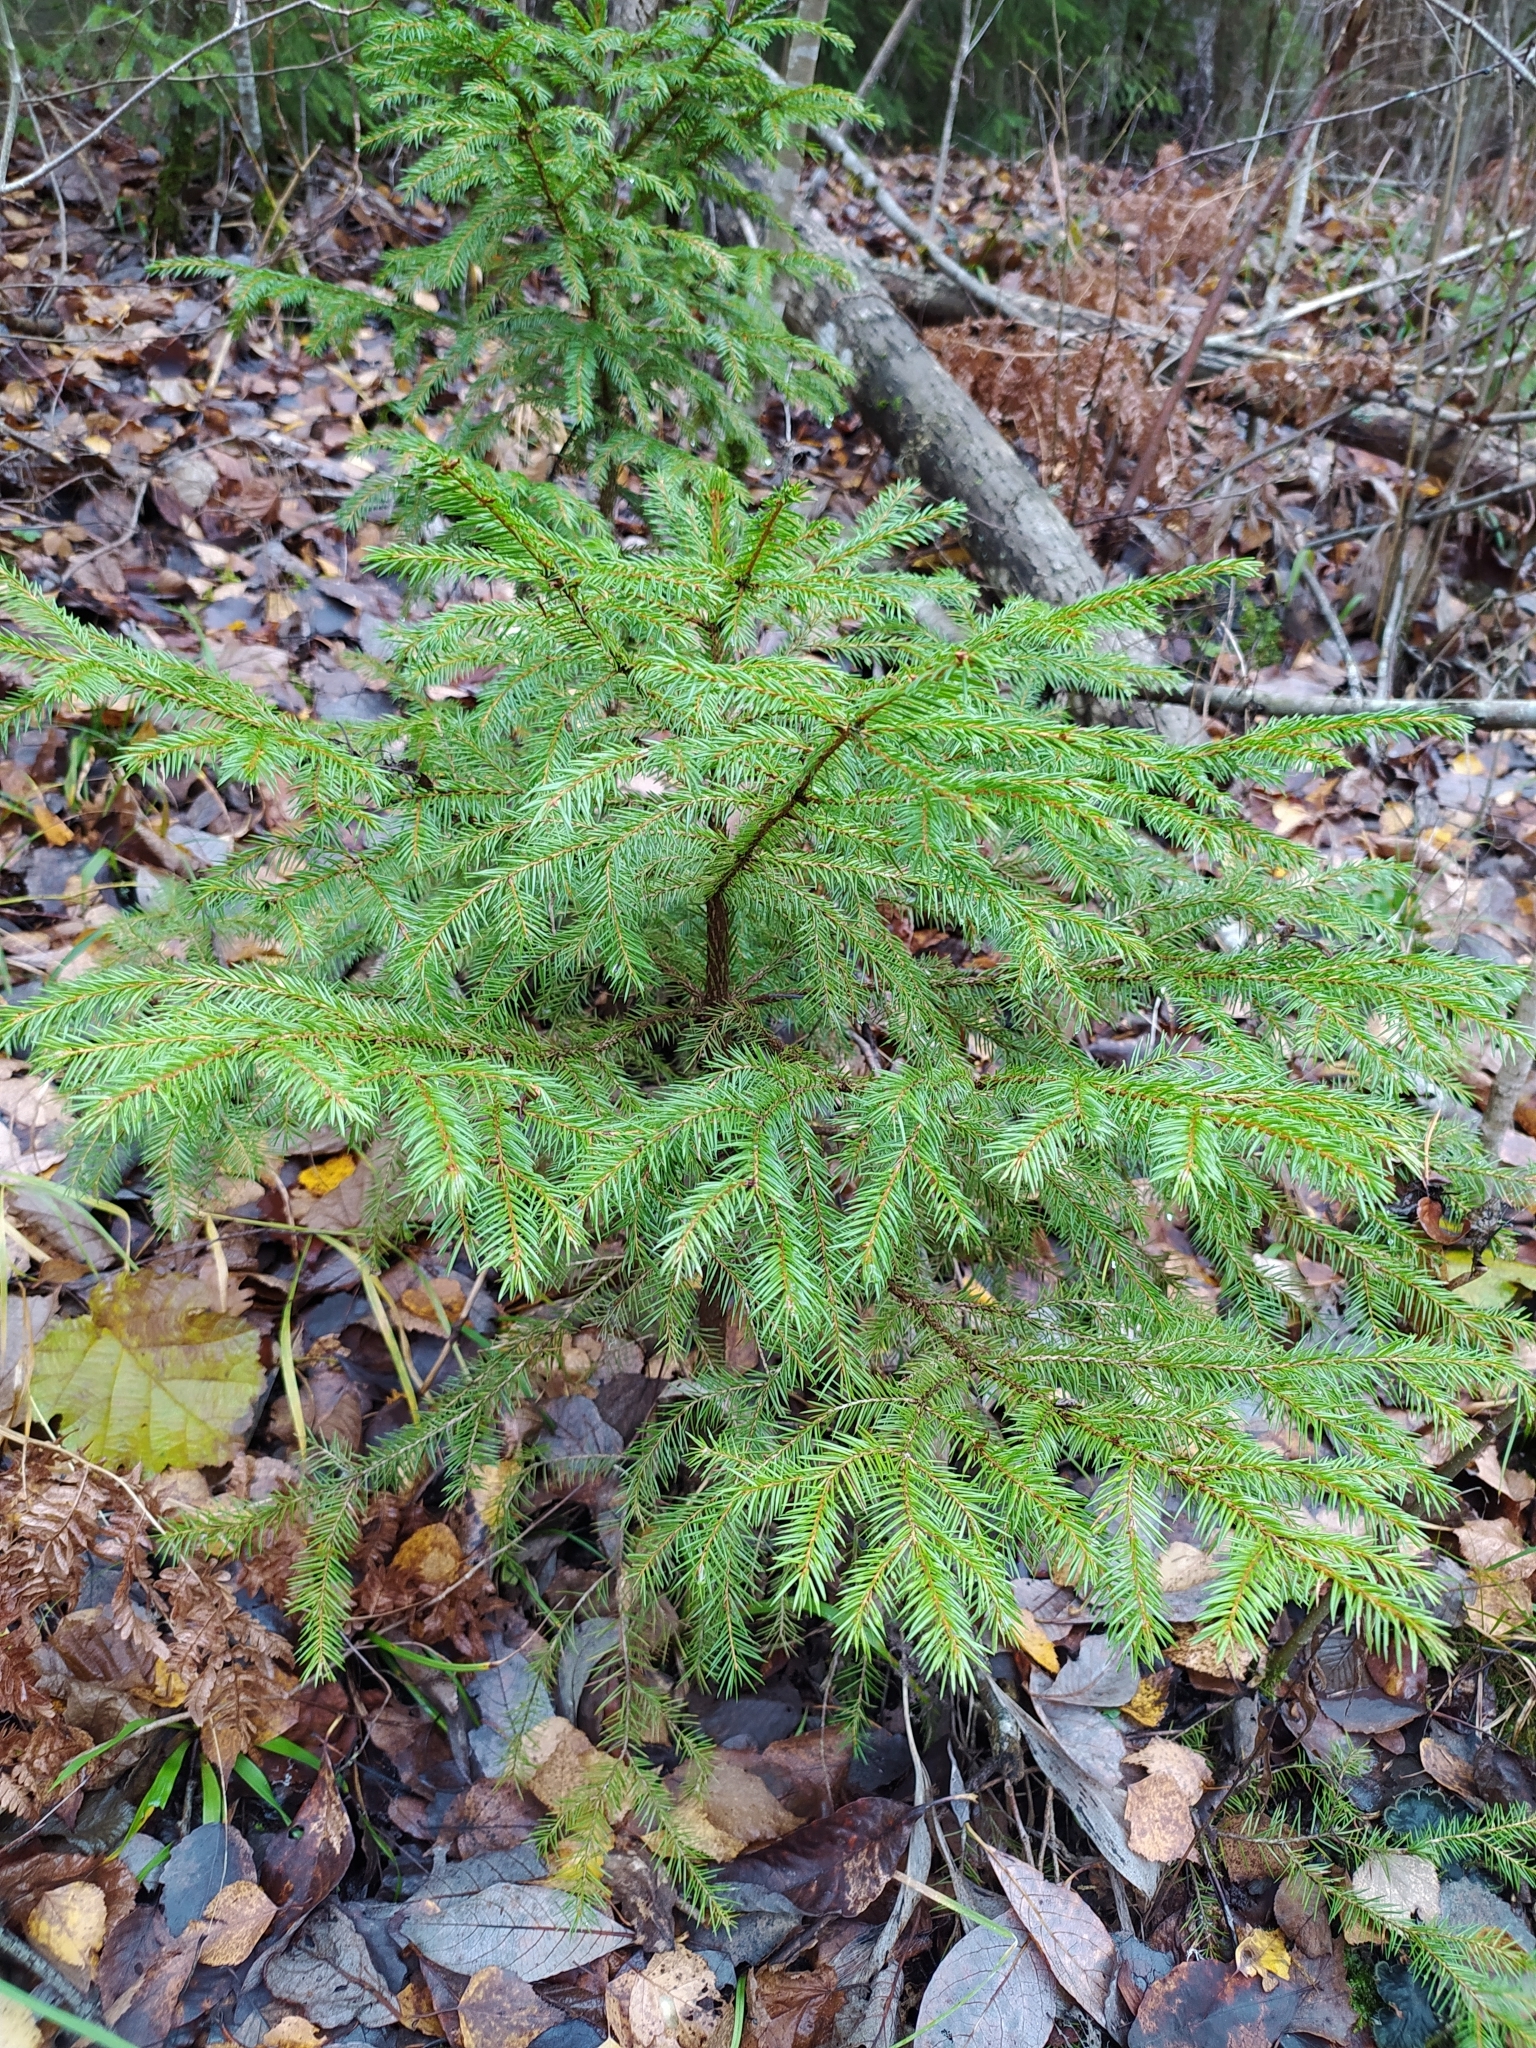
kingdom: Plantae
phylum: Tracheophyta
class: Pinopsida
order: Pinales
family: Pinaceae
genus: Picea
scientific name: Picea abies
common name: Norway spruce
